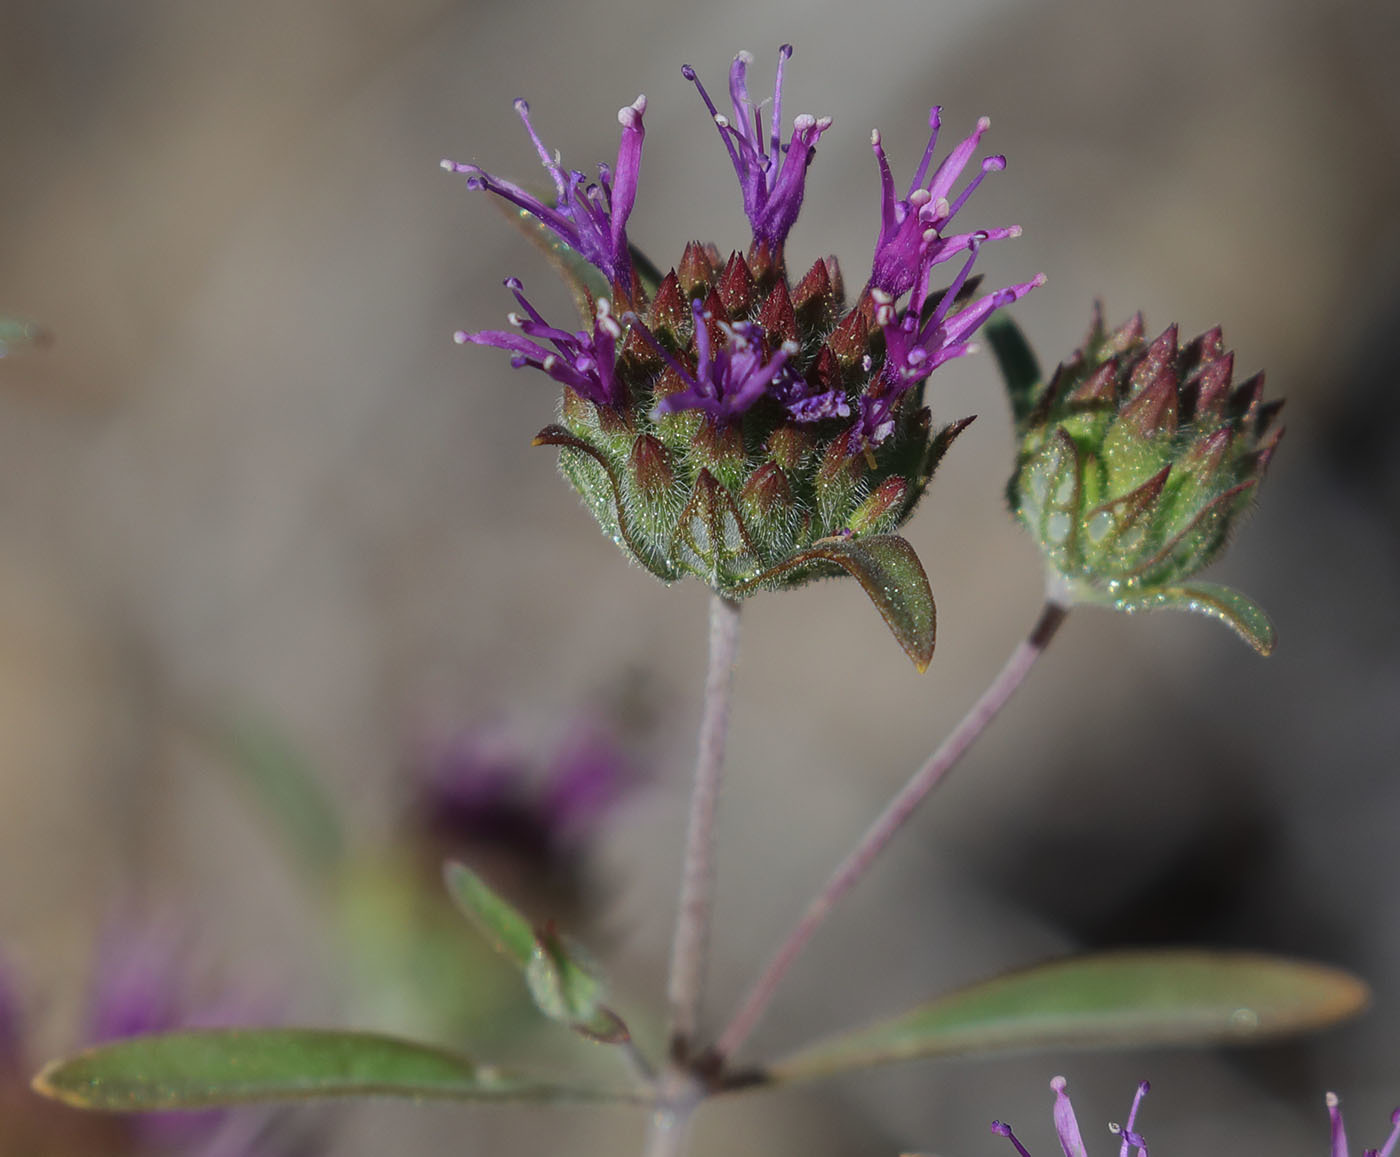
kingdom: Plantae
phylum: Tracheophyta
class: Magnoliopsida
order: Lamiales
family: Lamiaceae
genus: Monardella
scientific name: Monardella douglasii
